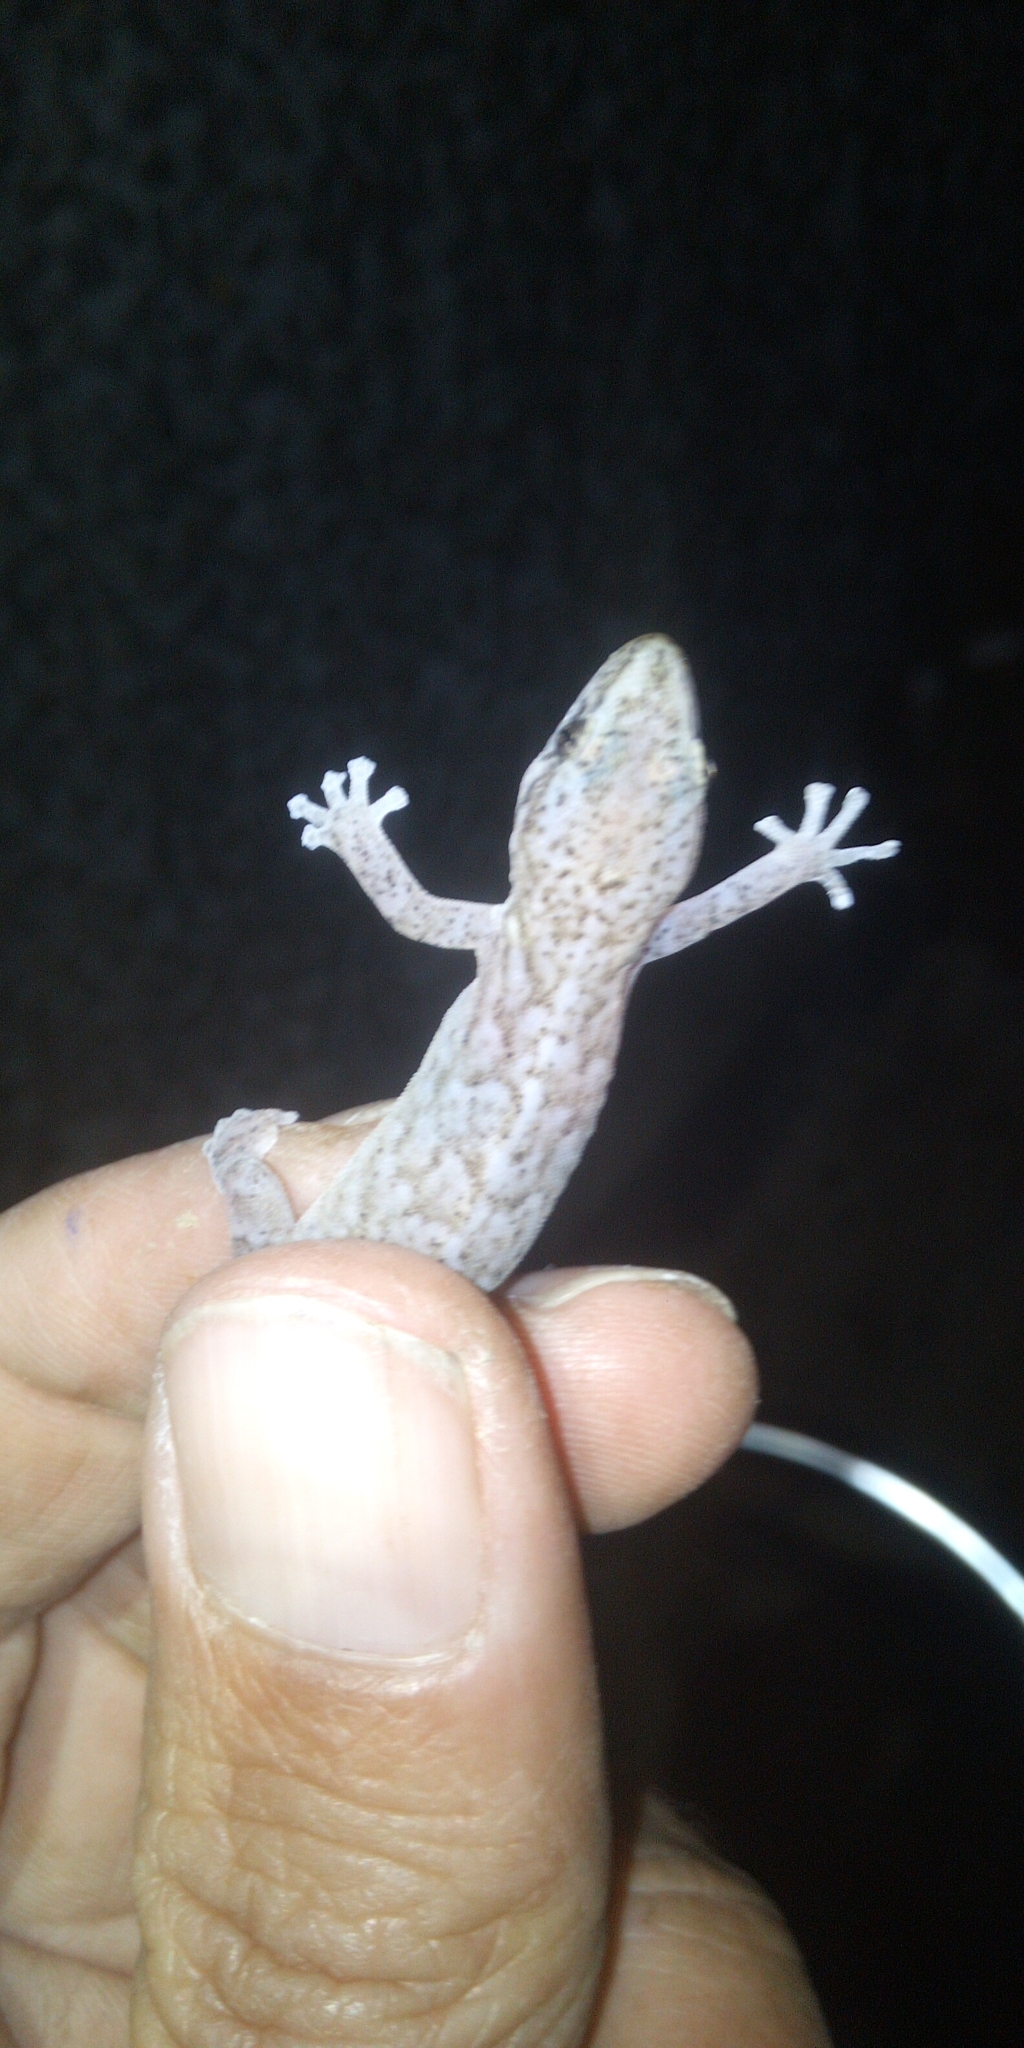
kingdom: Animalia
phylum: Chordata
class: Squamata
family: Gekkonidae
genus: Afrogecko
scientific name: Afrogecko porphyreus
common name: Marbled leaf-toed gecko
